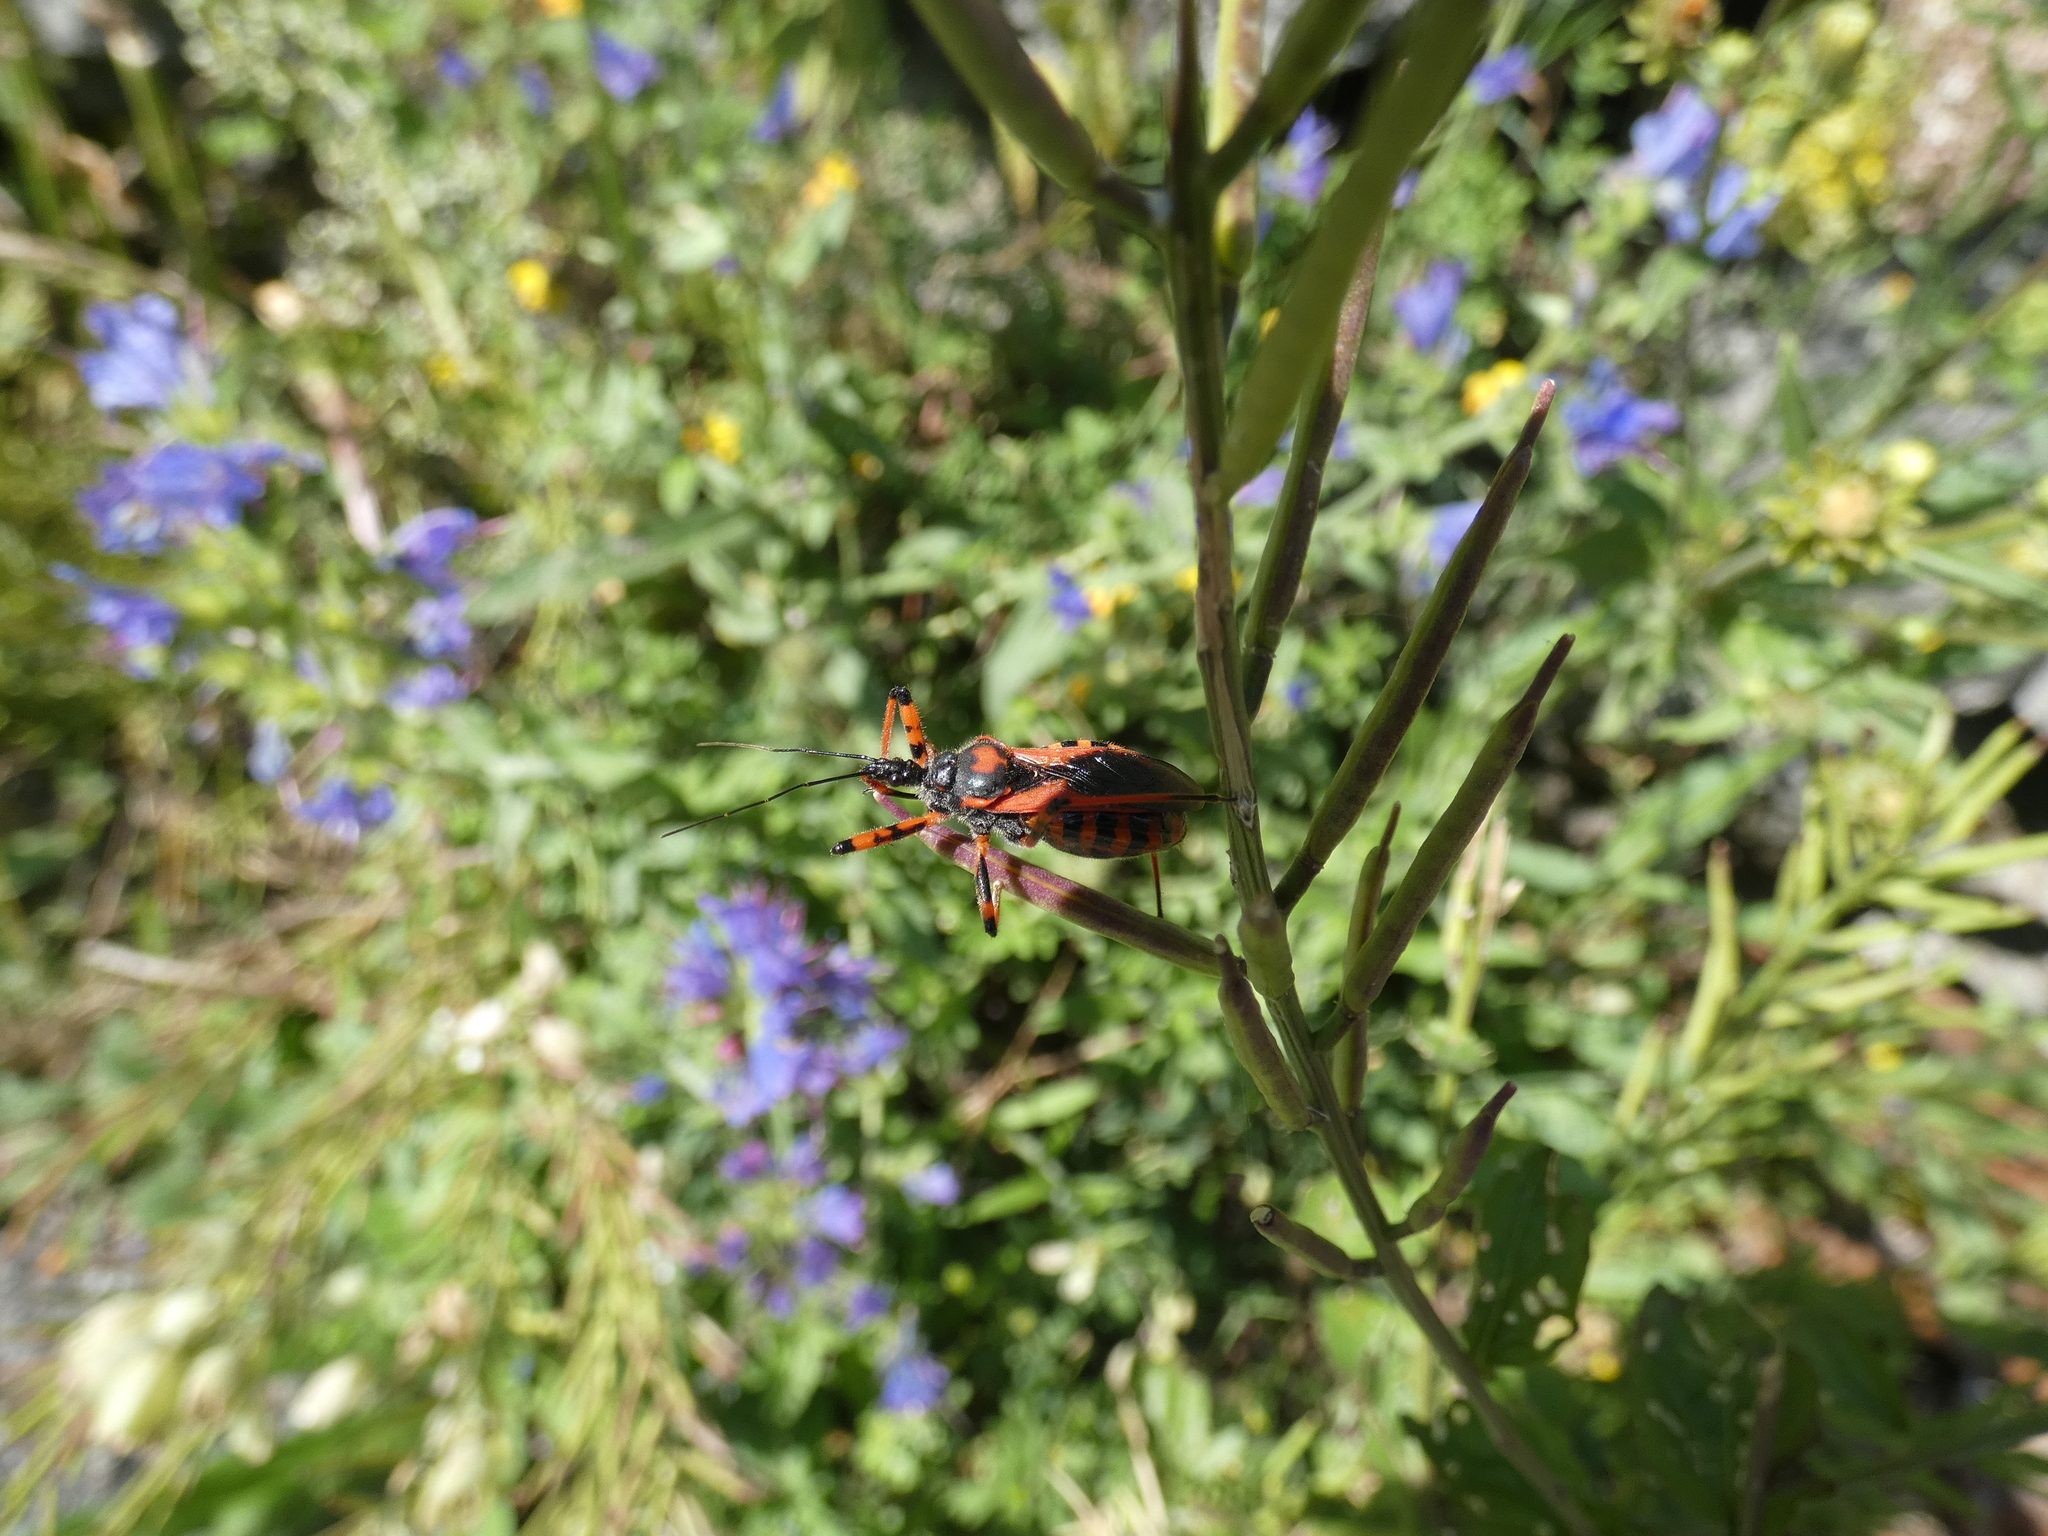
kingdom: Animalia
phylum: Arthropoda
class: Insecta
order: Hemiptera
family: Reduviidae
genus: Rhynocoris
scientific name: Rhynocoris iracundus
